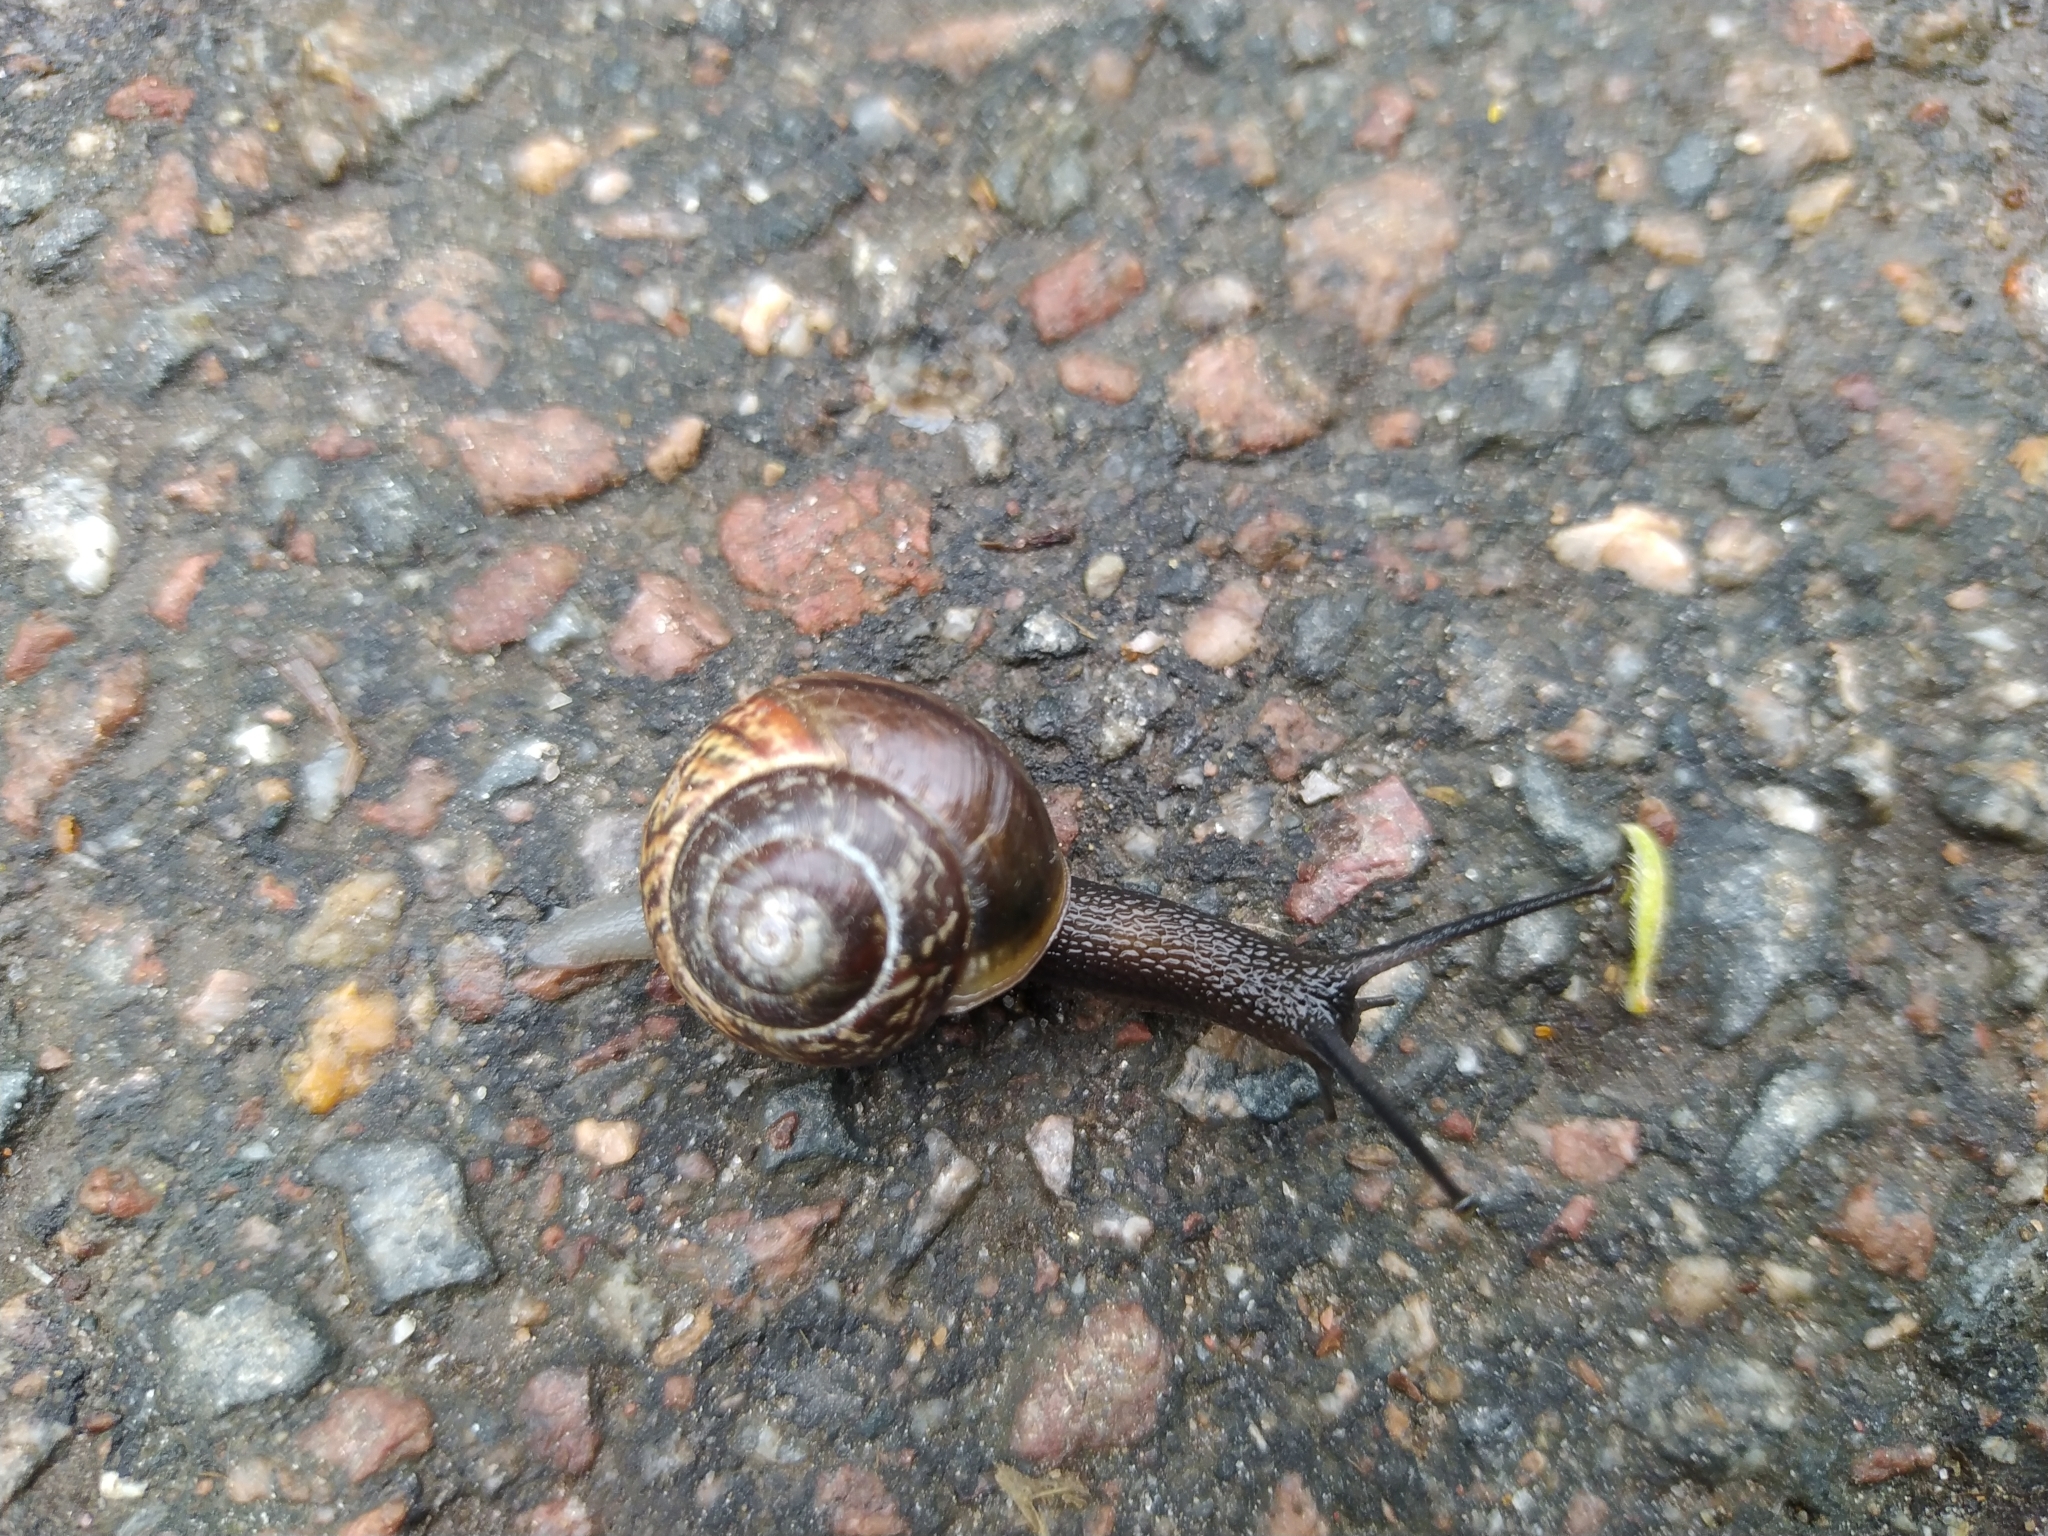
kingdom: Animalia
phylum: Mollusca
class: Gastropoda
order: Stylommatophora
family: Helicidae
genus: Arianta
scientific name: Arianta arbustorum
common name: Copse snail
